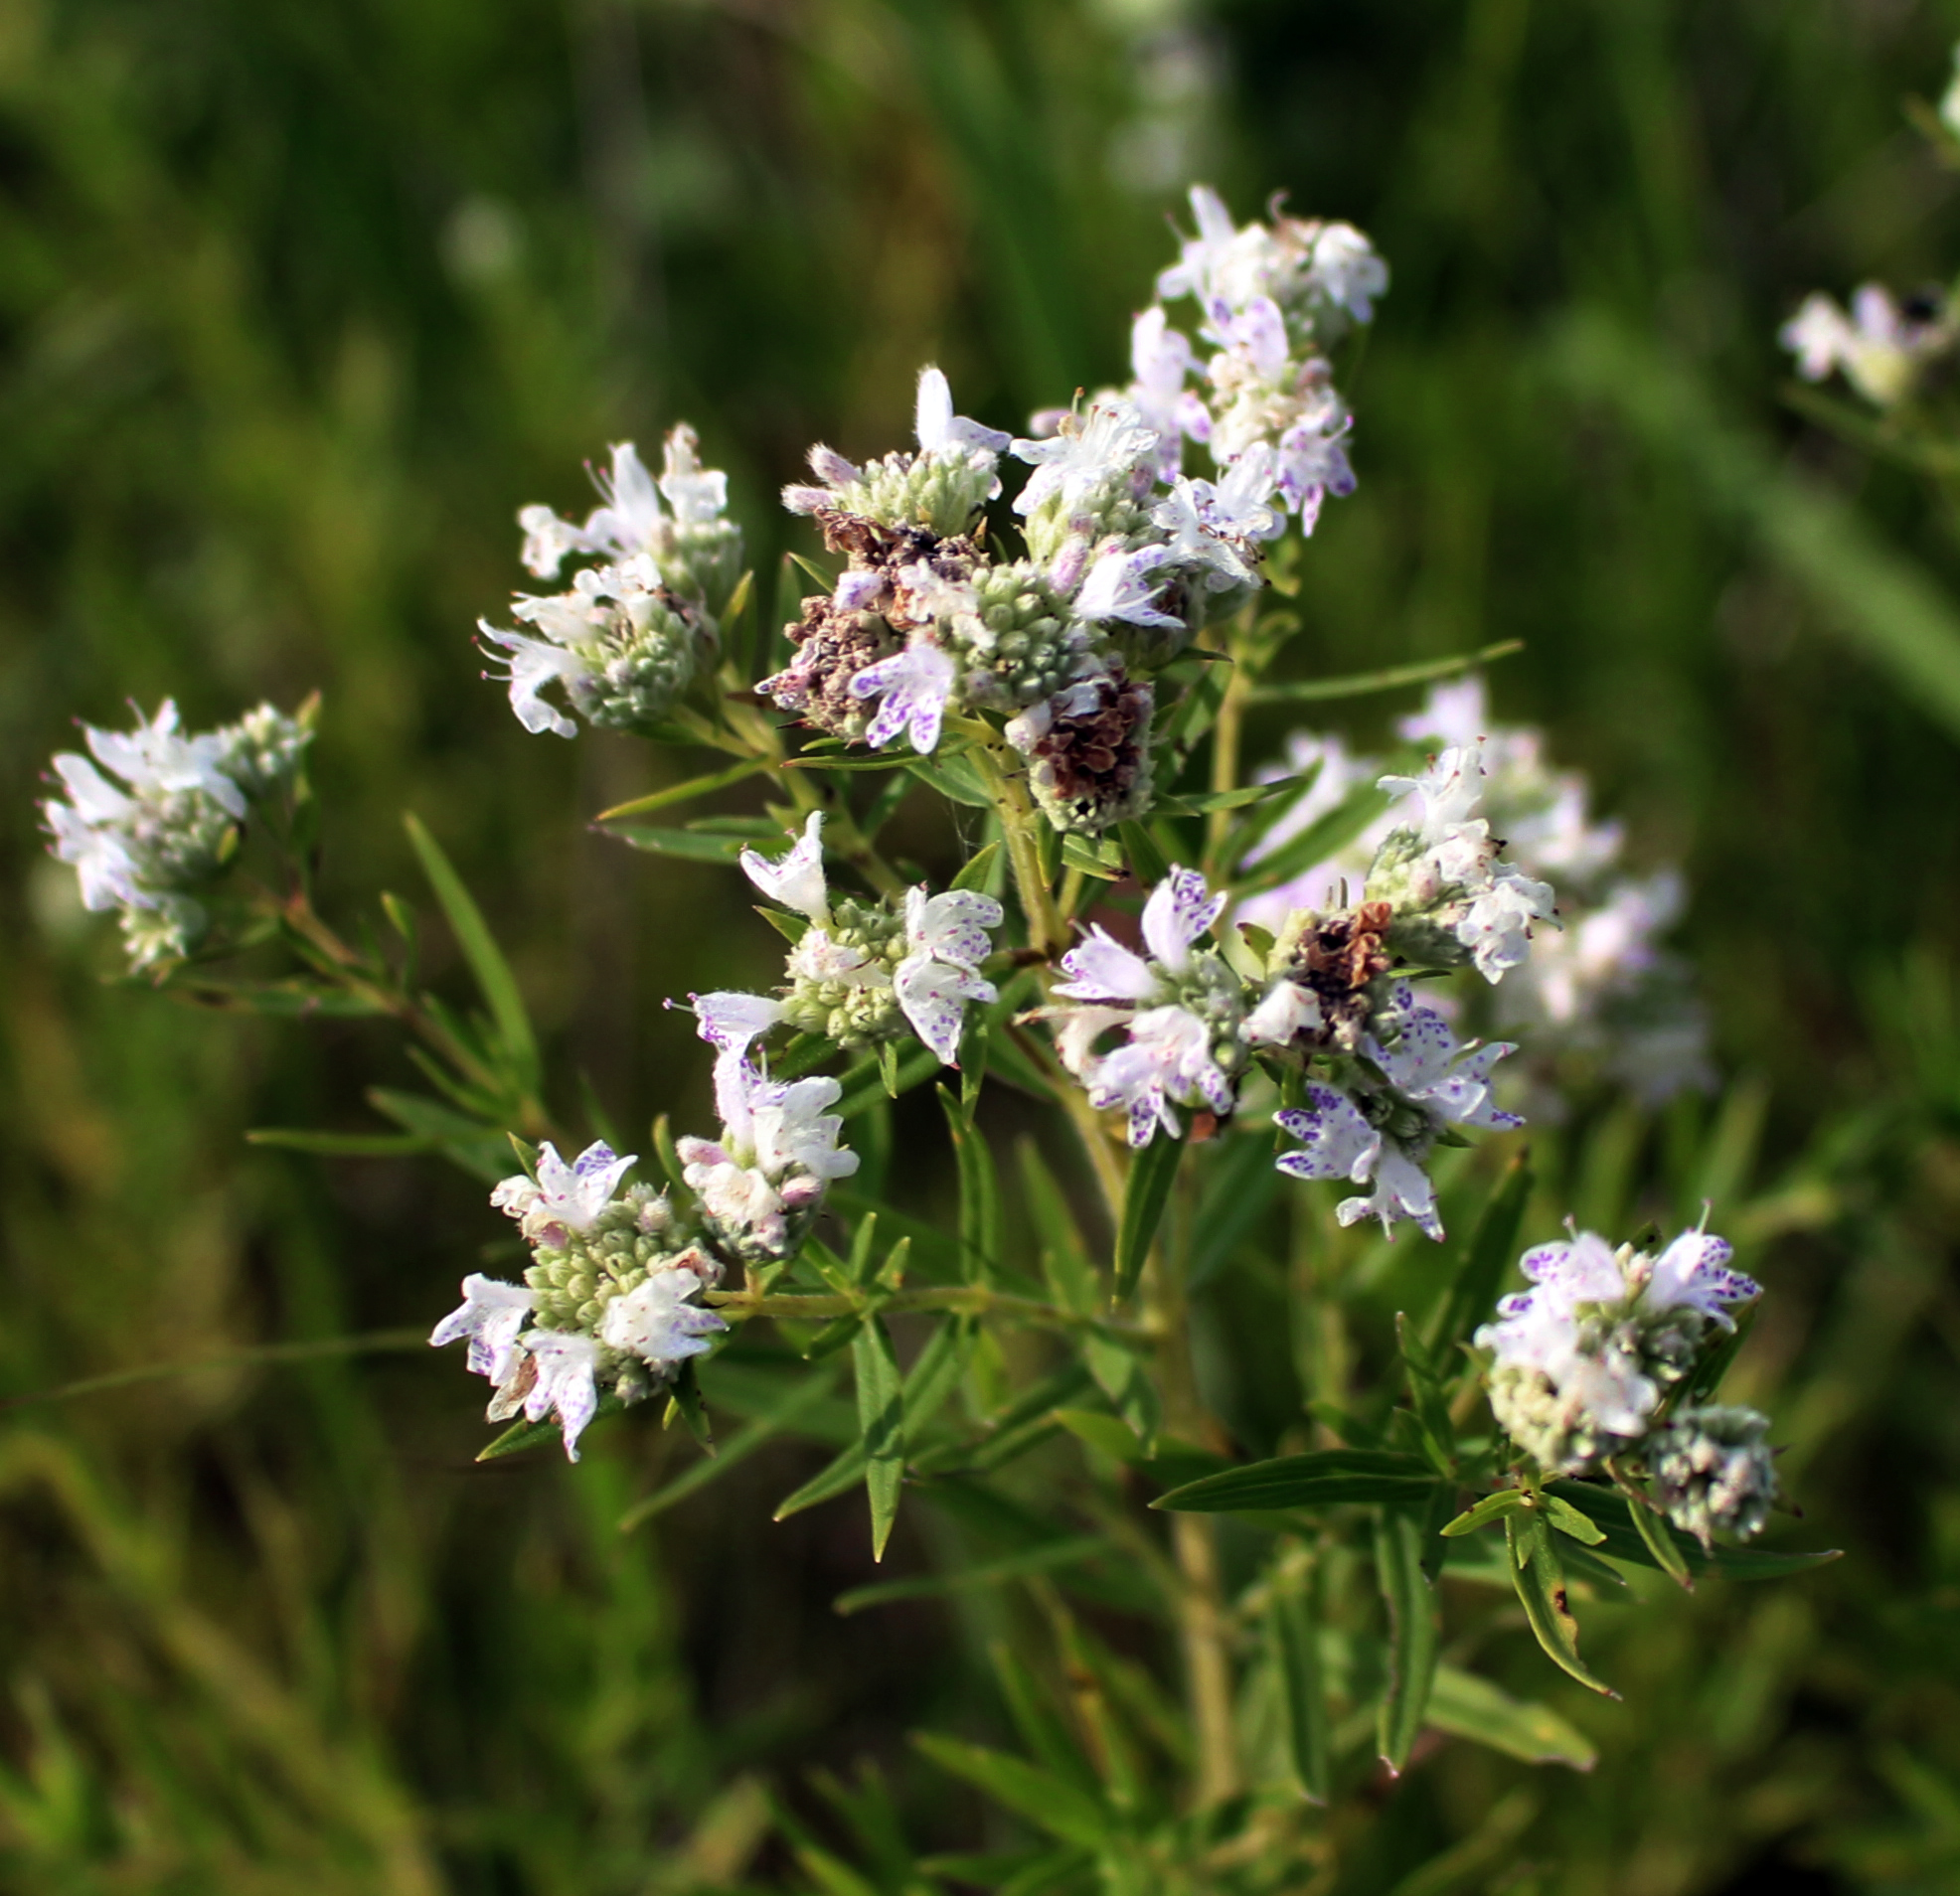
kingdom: Plantae
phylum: Tracheophyta
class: Magnoliopsida
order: Lamiales
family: Lamiaceae
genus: Pycnanthemum
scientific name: Pycnanthemum virginianum
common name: Virginia mountain-mint
